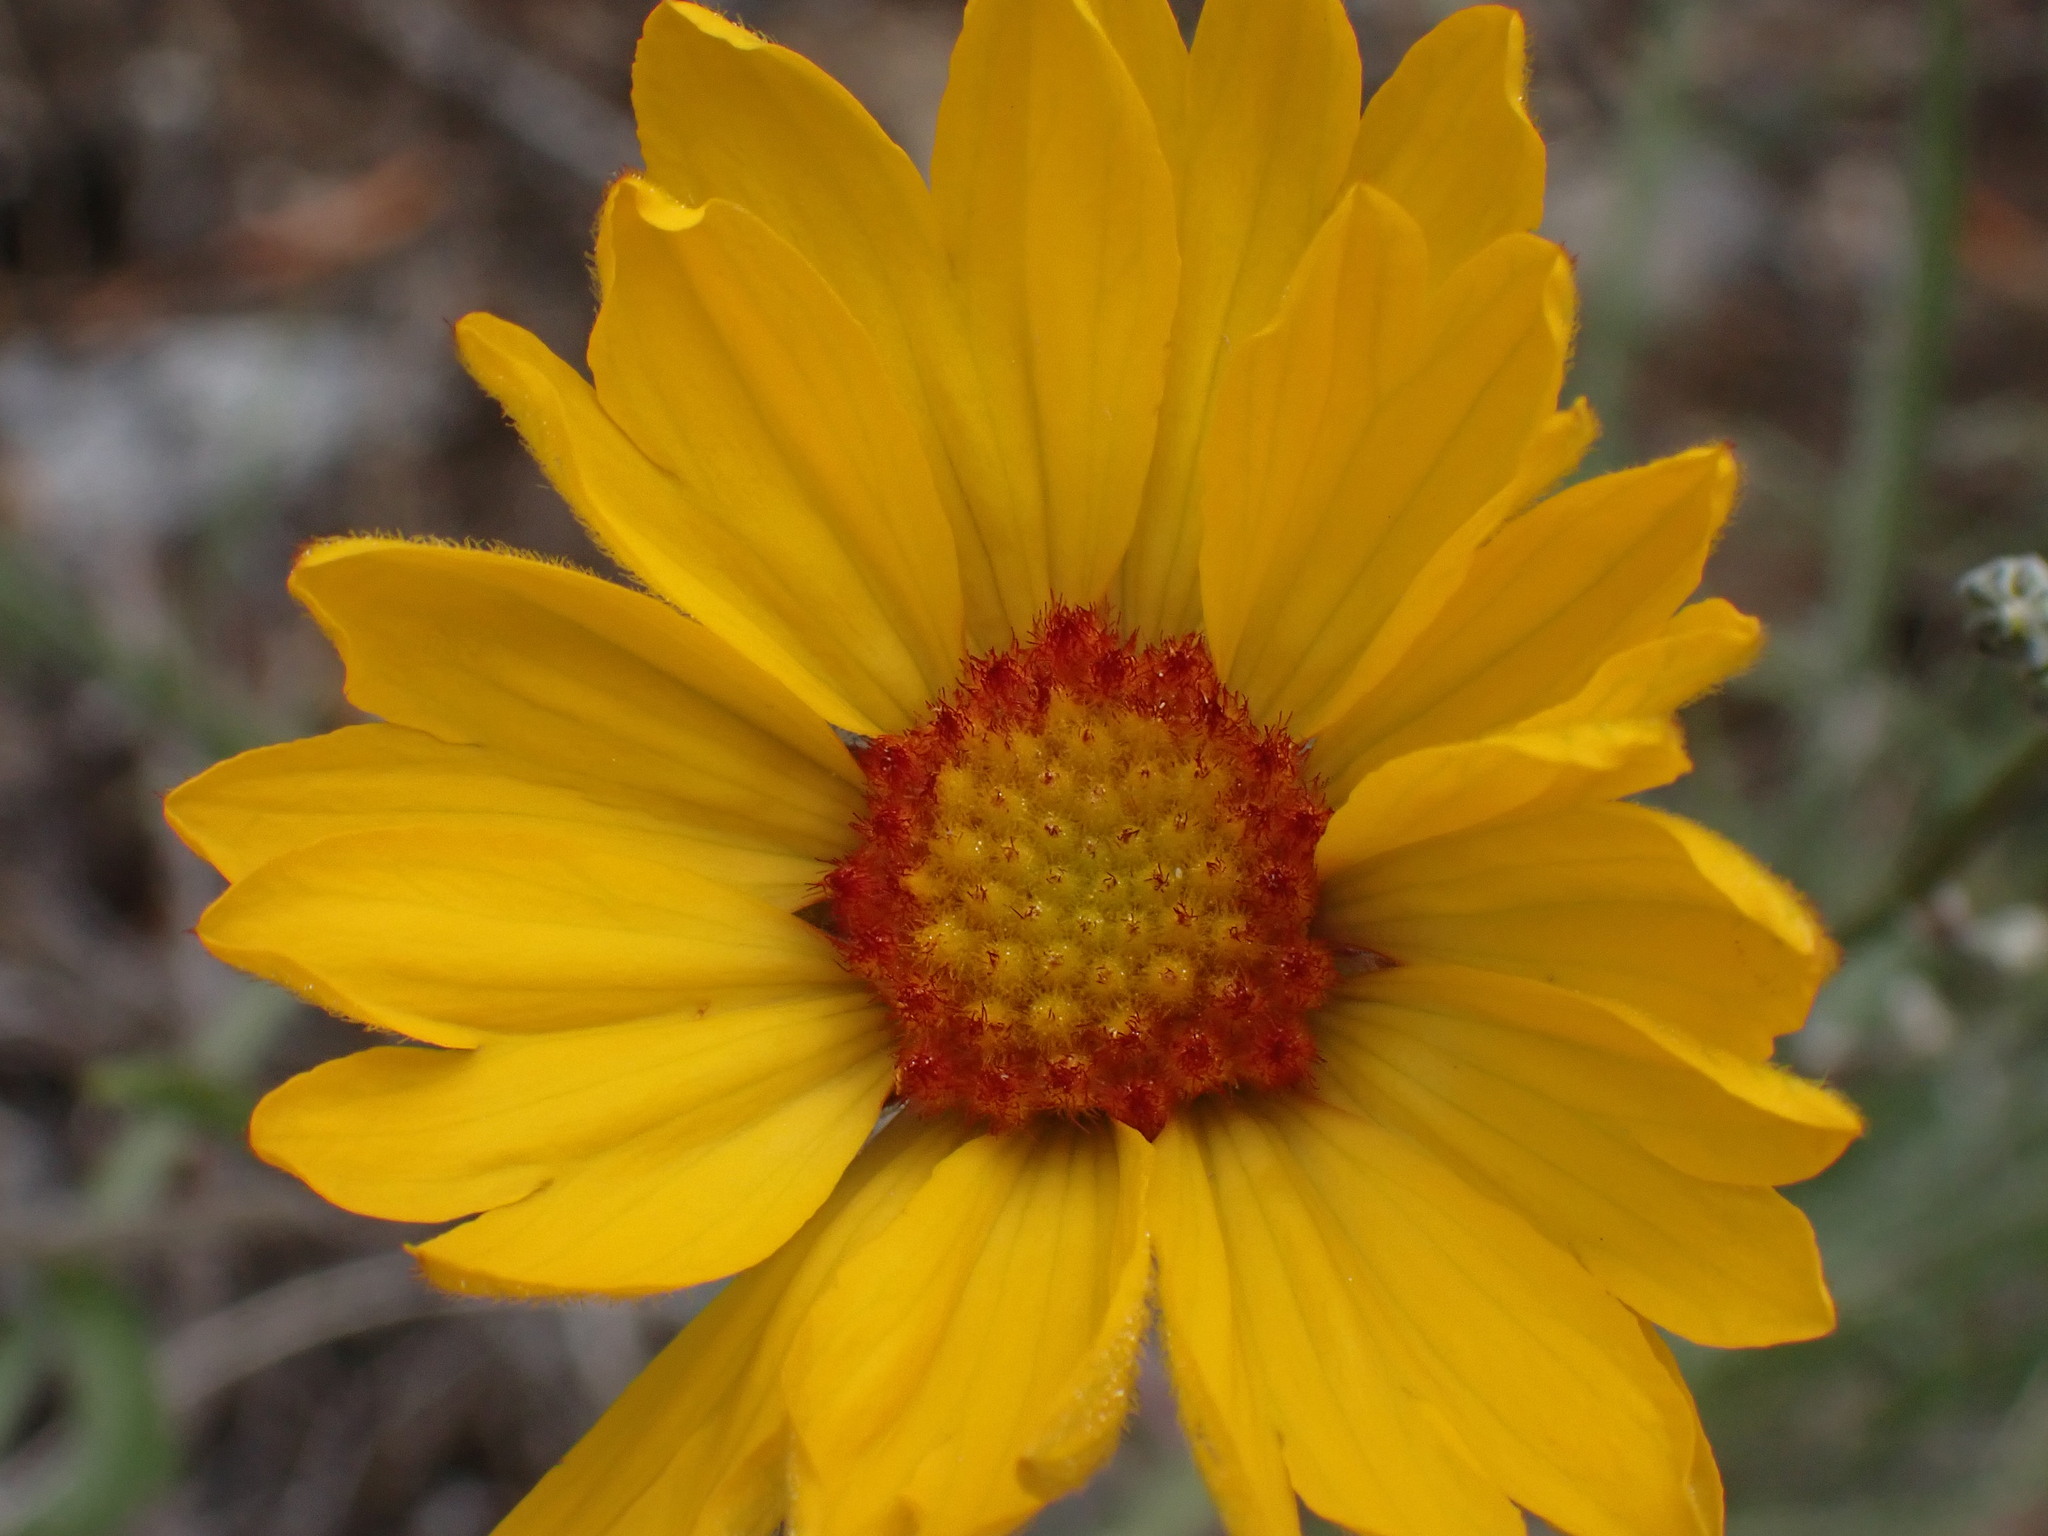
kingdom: Plantae
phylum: Tracheophyta
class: Magnoliopsida
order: Asterales
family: Asteraceae
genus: Gaillardia
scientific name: Gaillardia aristata
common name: Blanket-flower
